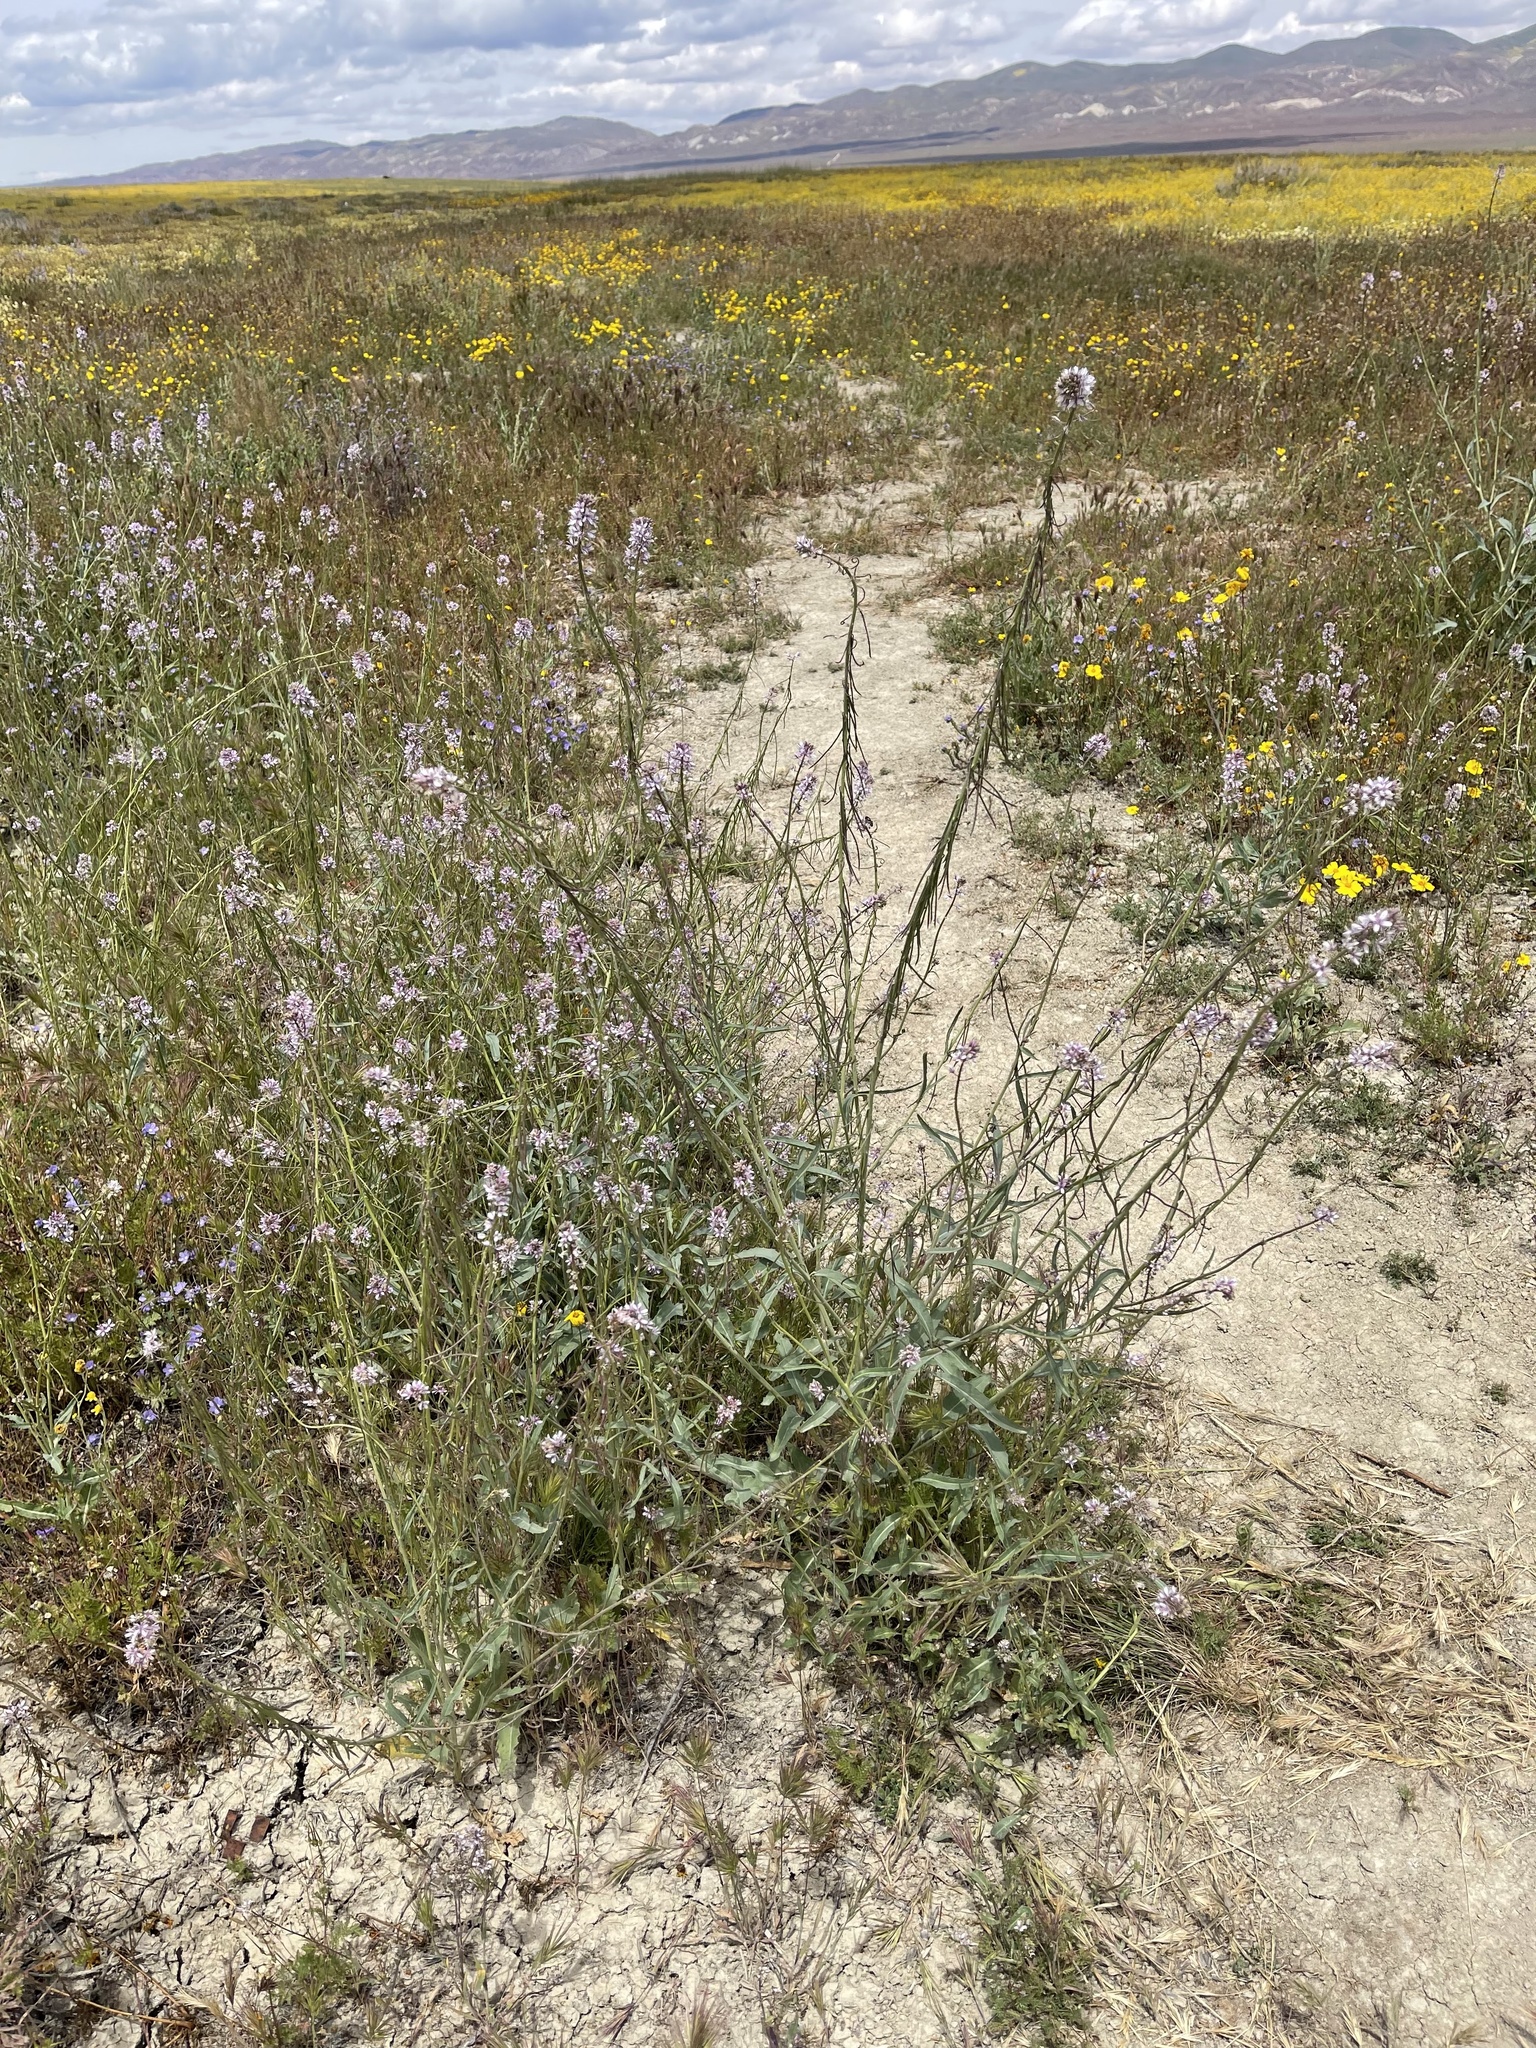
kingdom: Plantae
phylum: Tracheophyta
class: Magnoliopsida
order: Brassicales
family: Brassicaceae
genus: Streptanthus
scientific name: Streptanthus anceps
